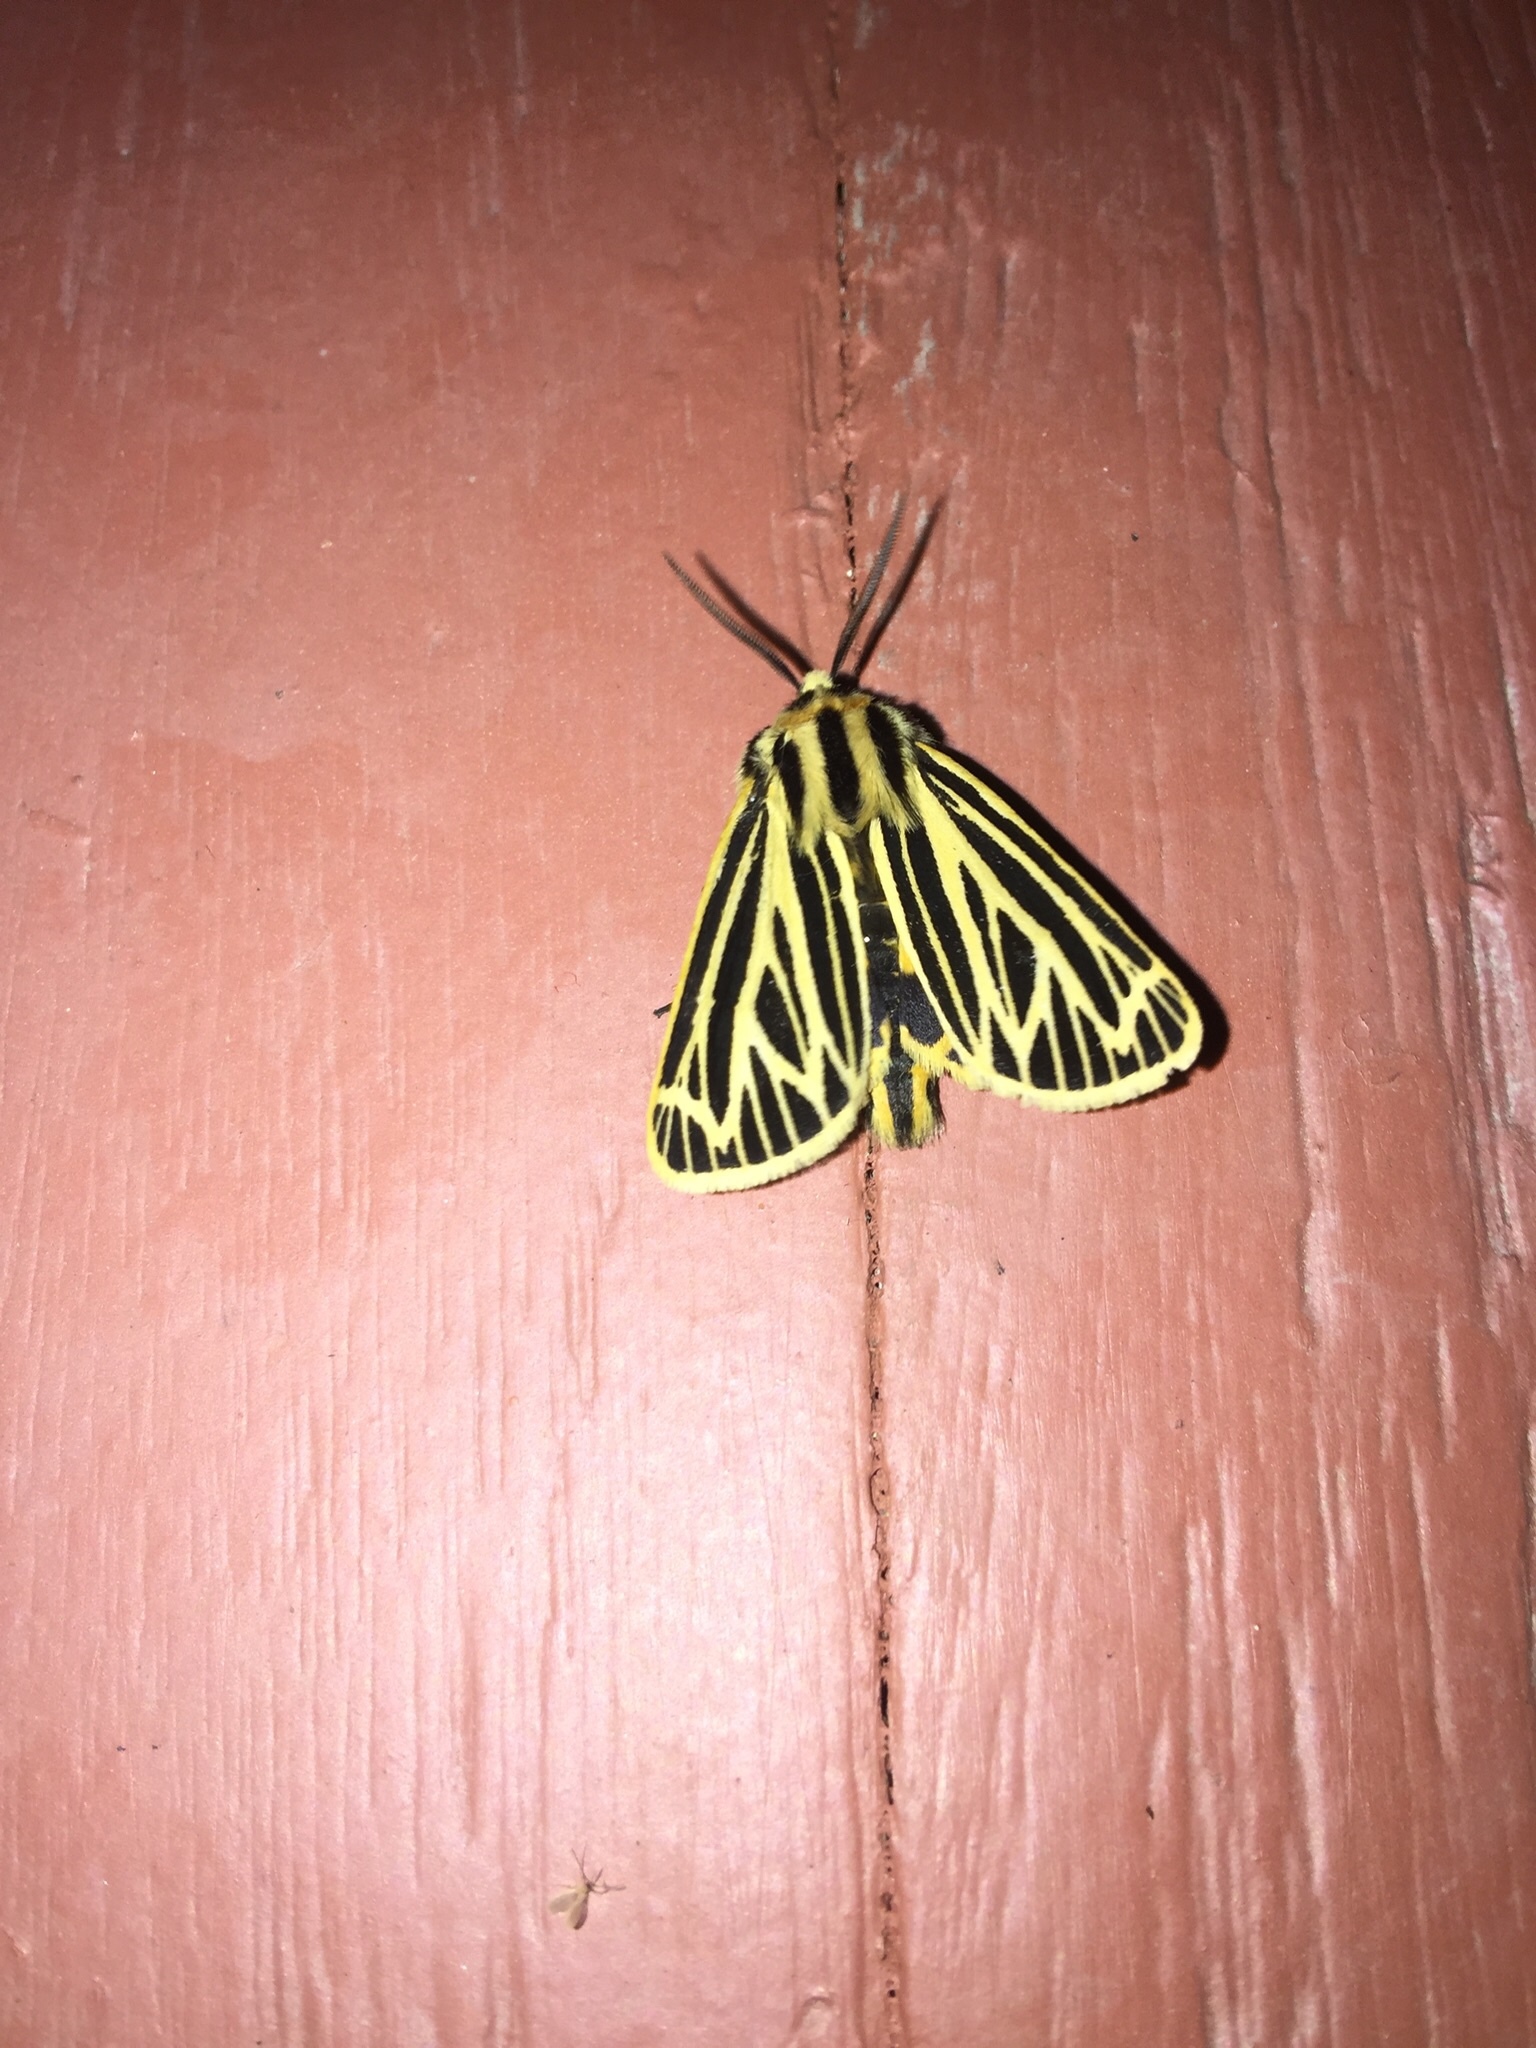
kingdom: Animalia
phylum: Arthropoda
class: Insecta
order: Lepidoptera
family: Erebidae
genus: Grammia
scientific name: Grammia virguncula
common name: Little tiger moth
